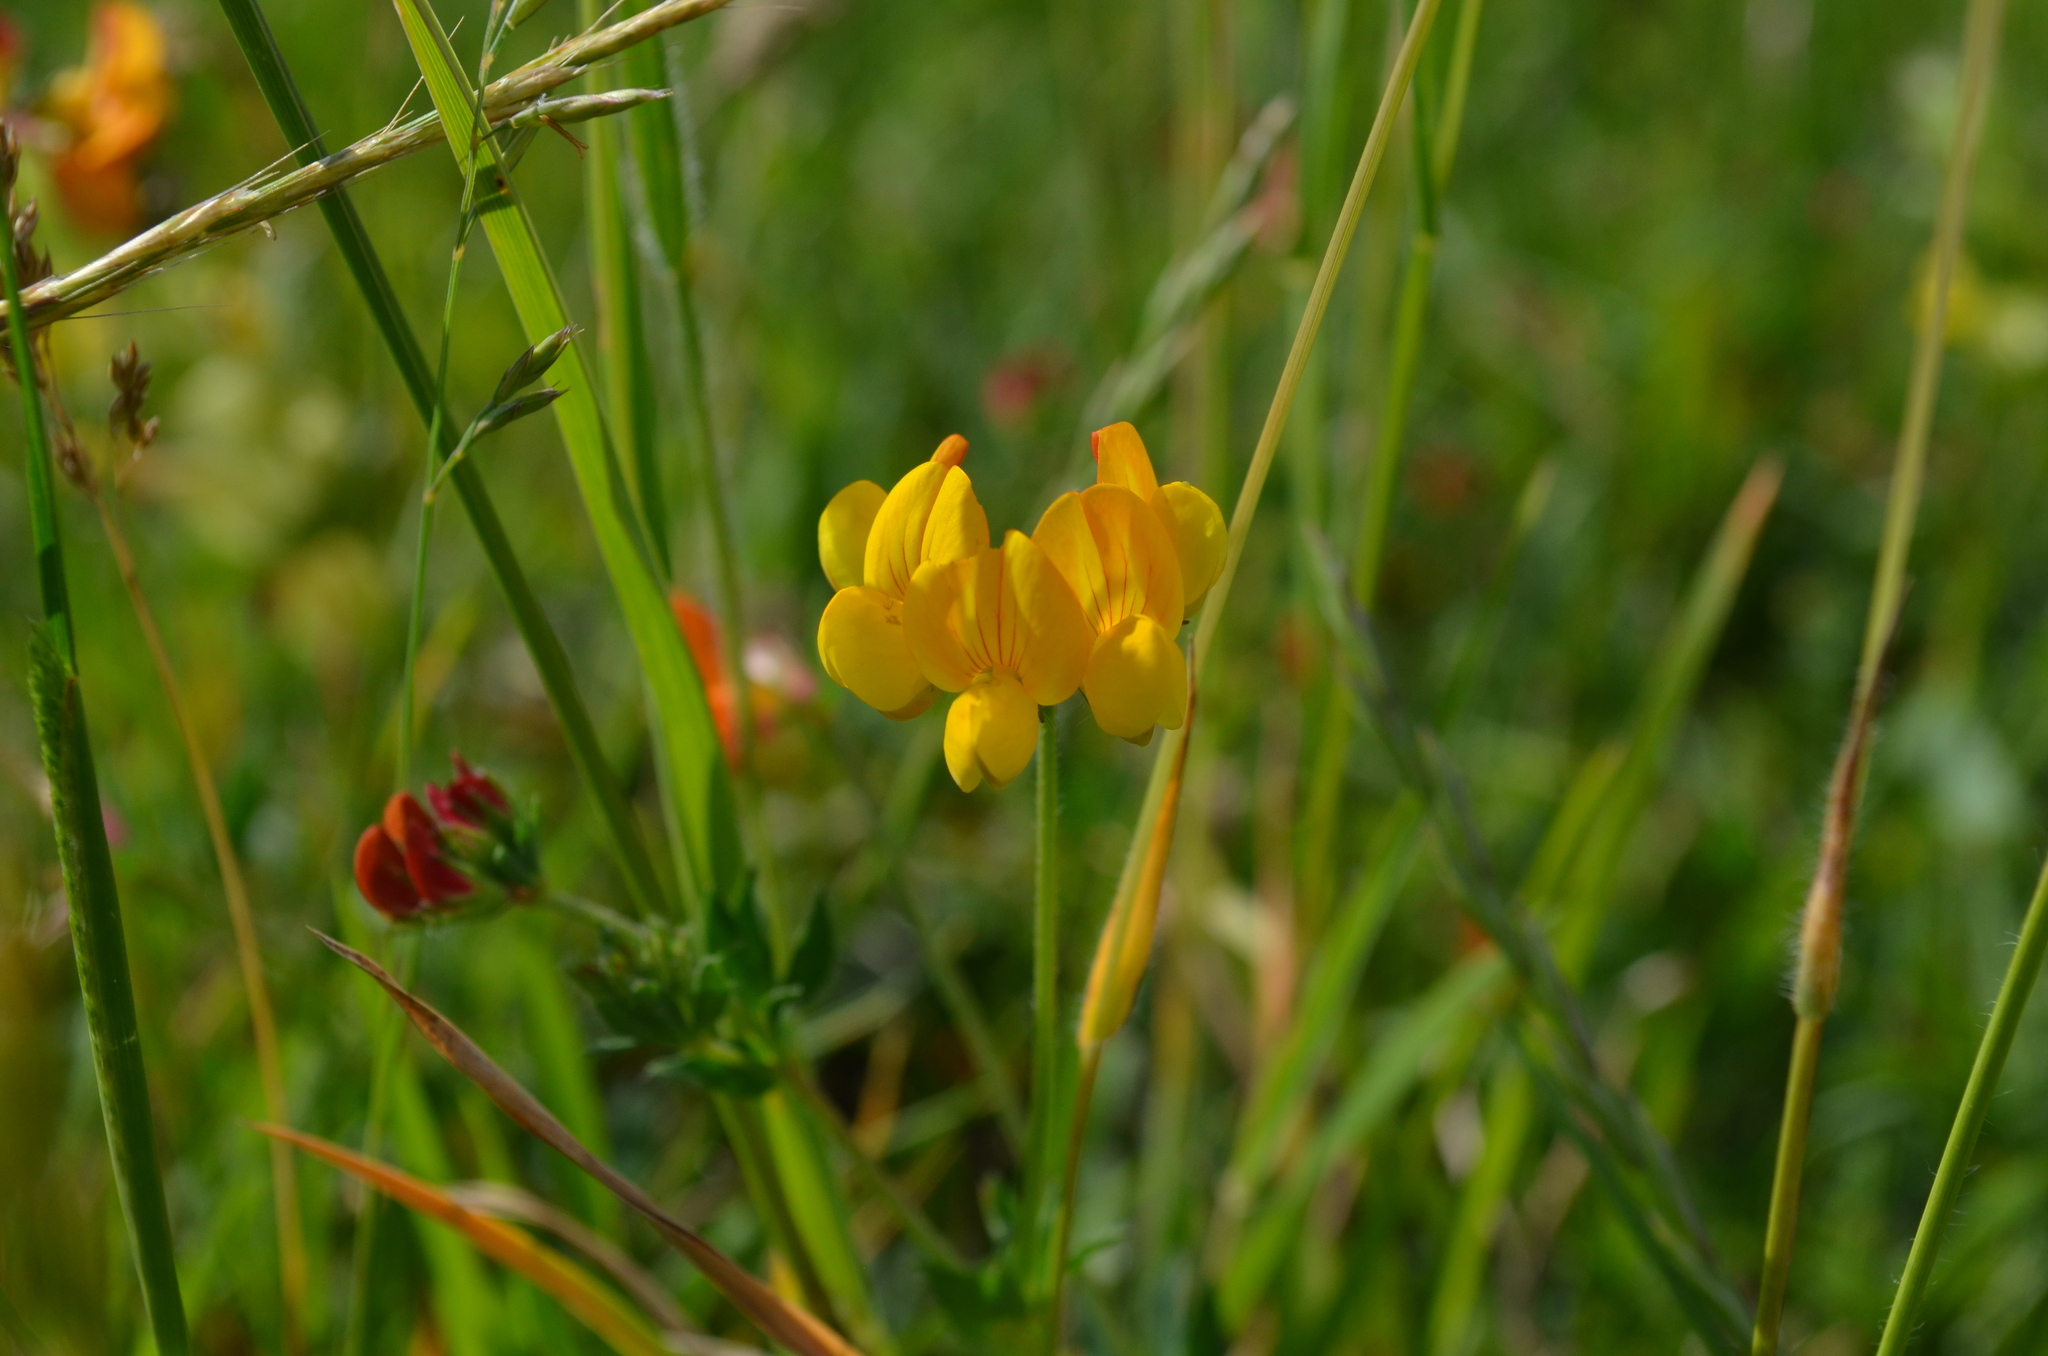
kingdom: Plantae
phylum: Tracheophyta
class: Magnoliopsida
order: Fabales
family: Fabaceae
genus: Lotus
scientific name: Lotus corniculatus
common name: Common bird's-foot-trefoil
